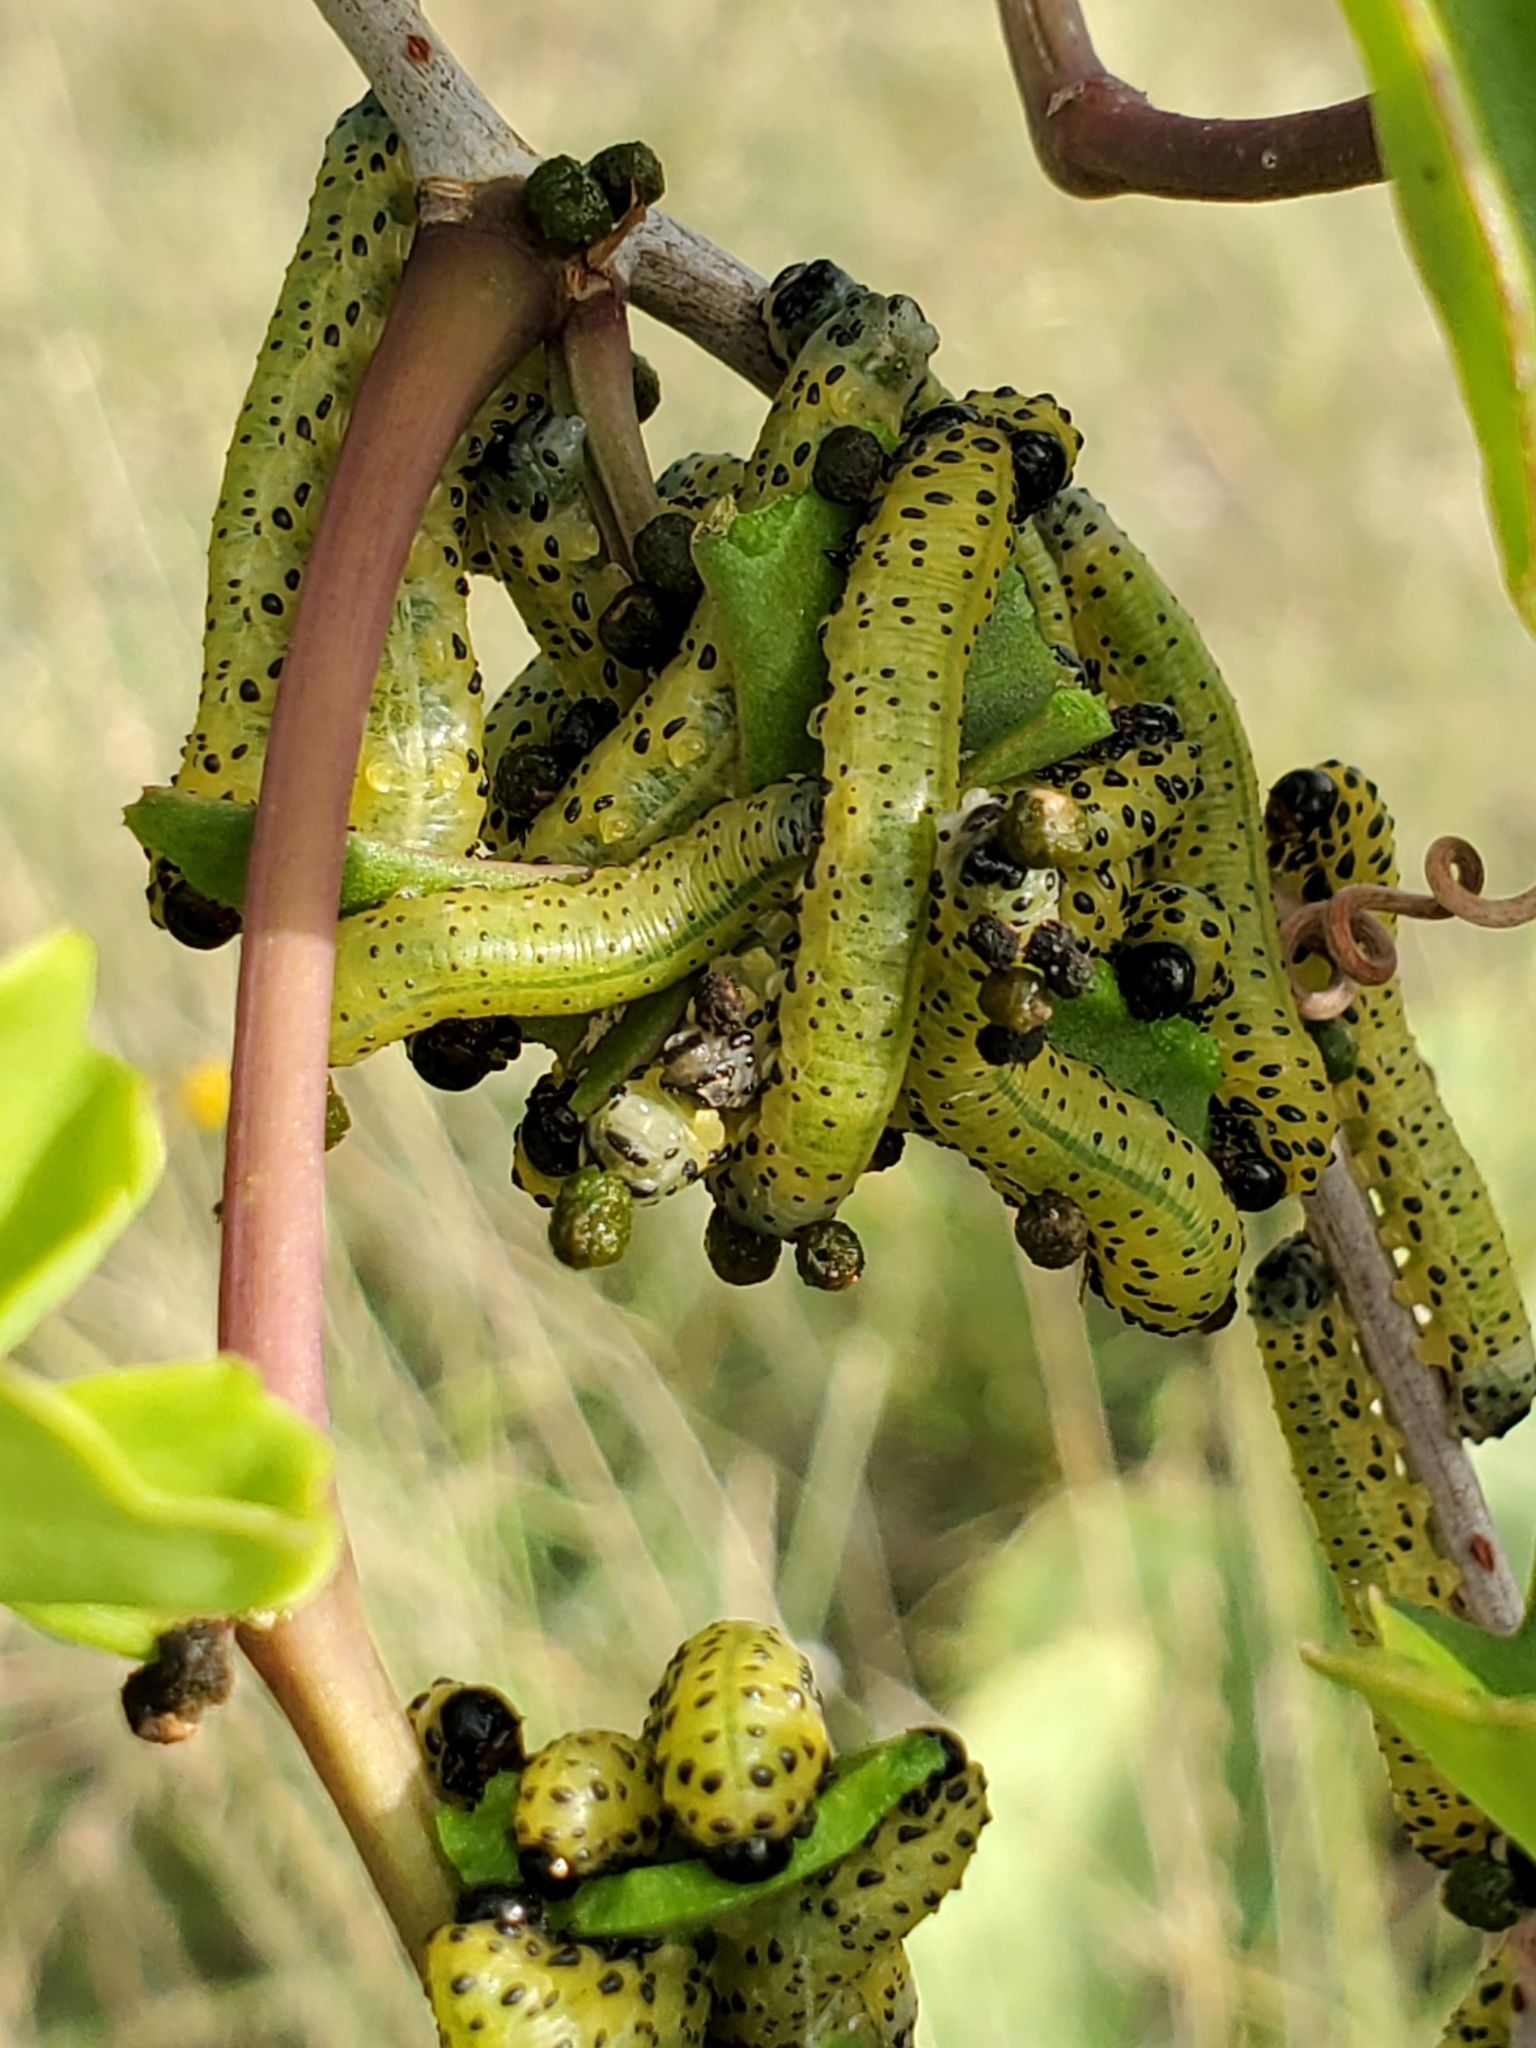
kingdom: Animalia
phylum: Arthropoda
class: Insecta
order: Hymenoptera
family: Tenthredinidae
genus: Ceratulus
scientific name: Ceratulus
